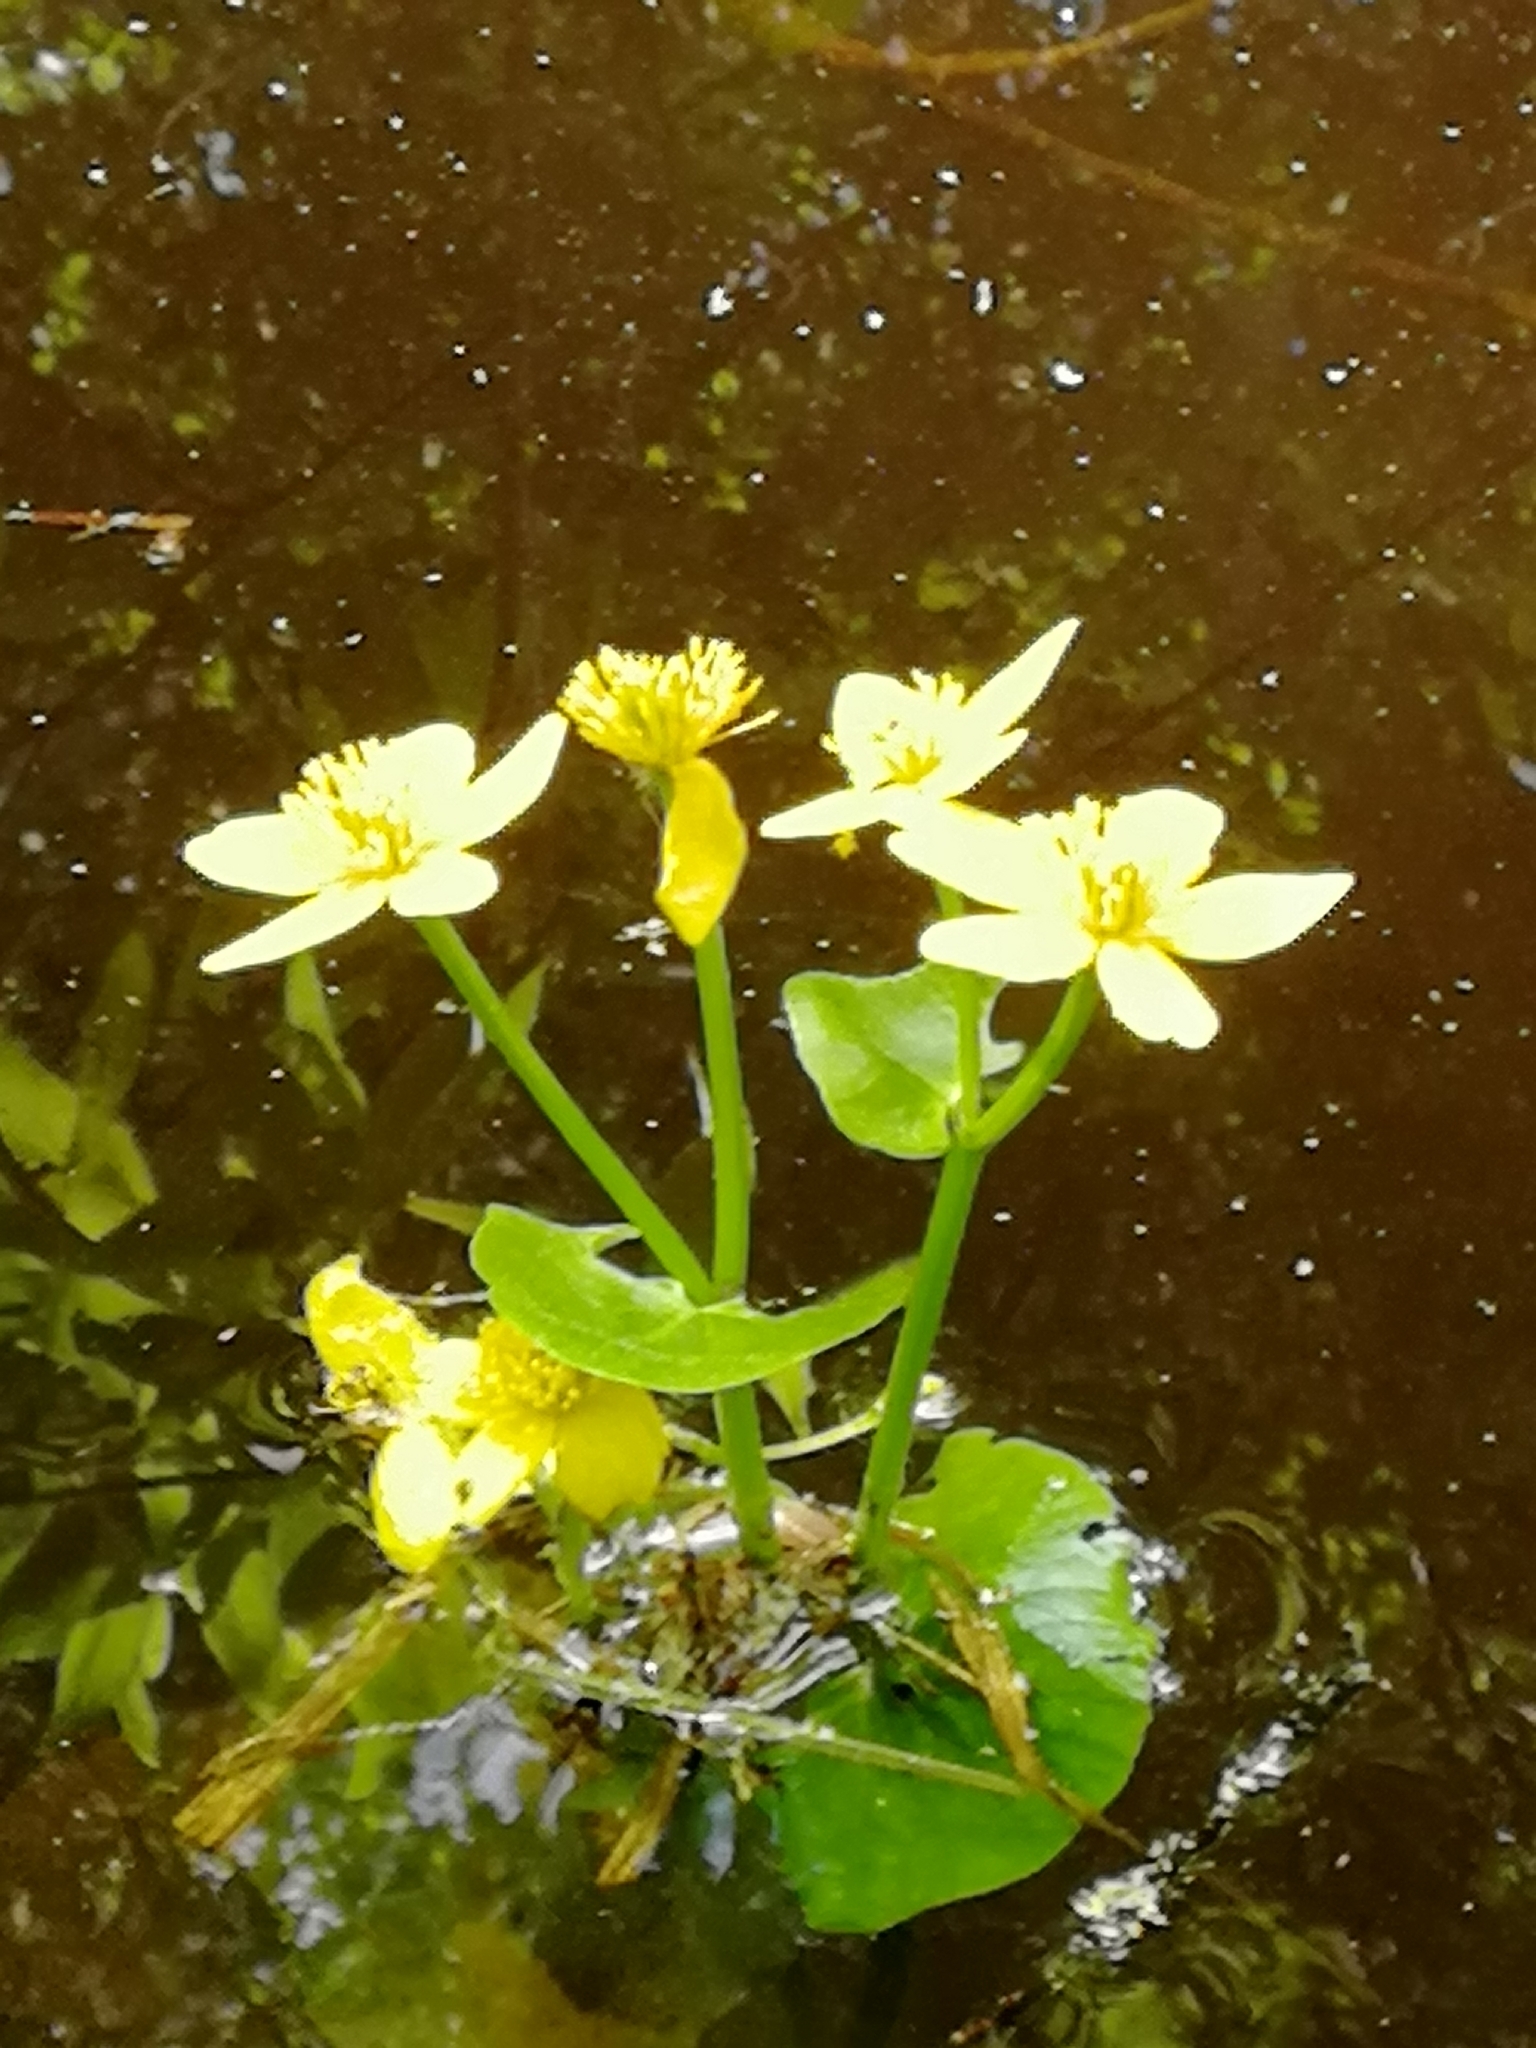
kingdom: Plantae
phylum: Tracheophyta
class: Magnoliopsida
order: Ranunculales
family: Ranunculaceae
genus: Caltha
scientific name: Caltha palustris
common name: Marsh marigold
